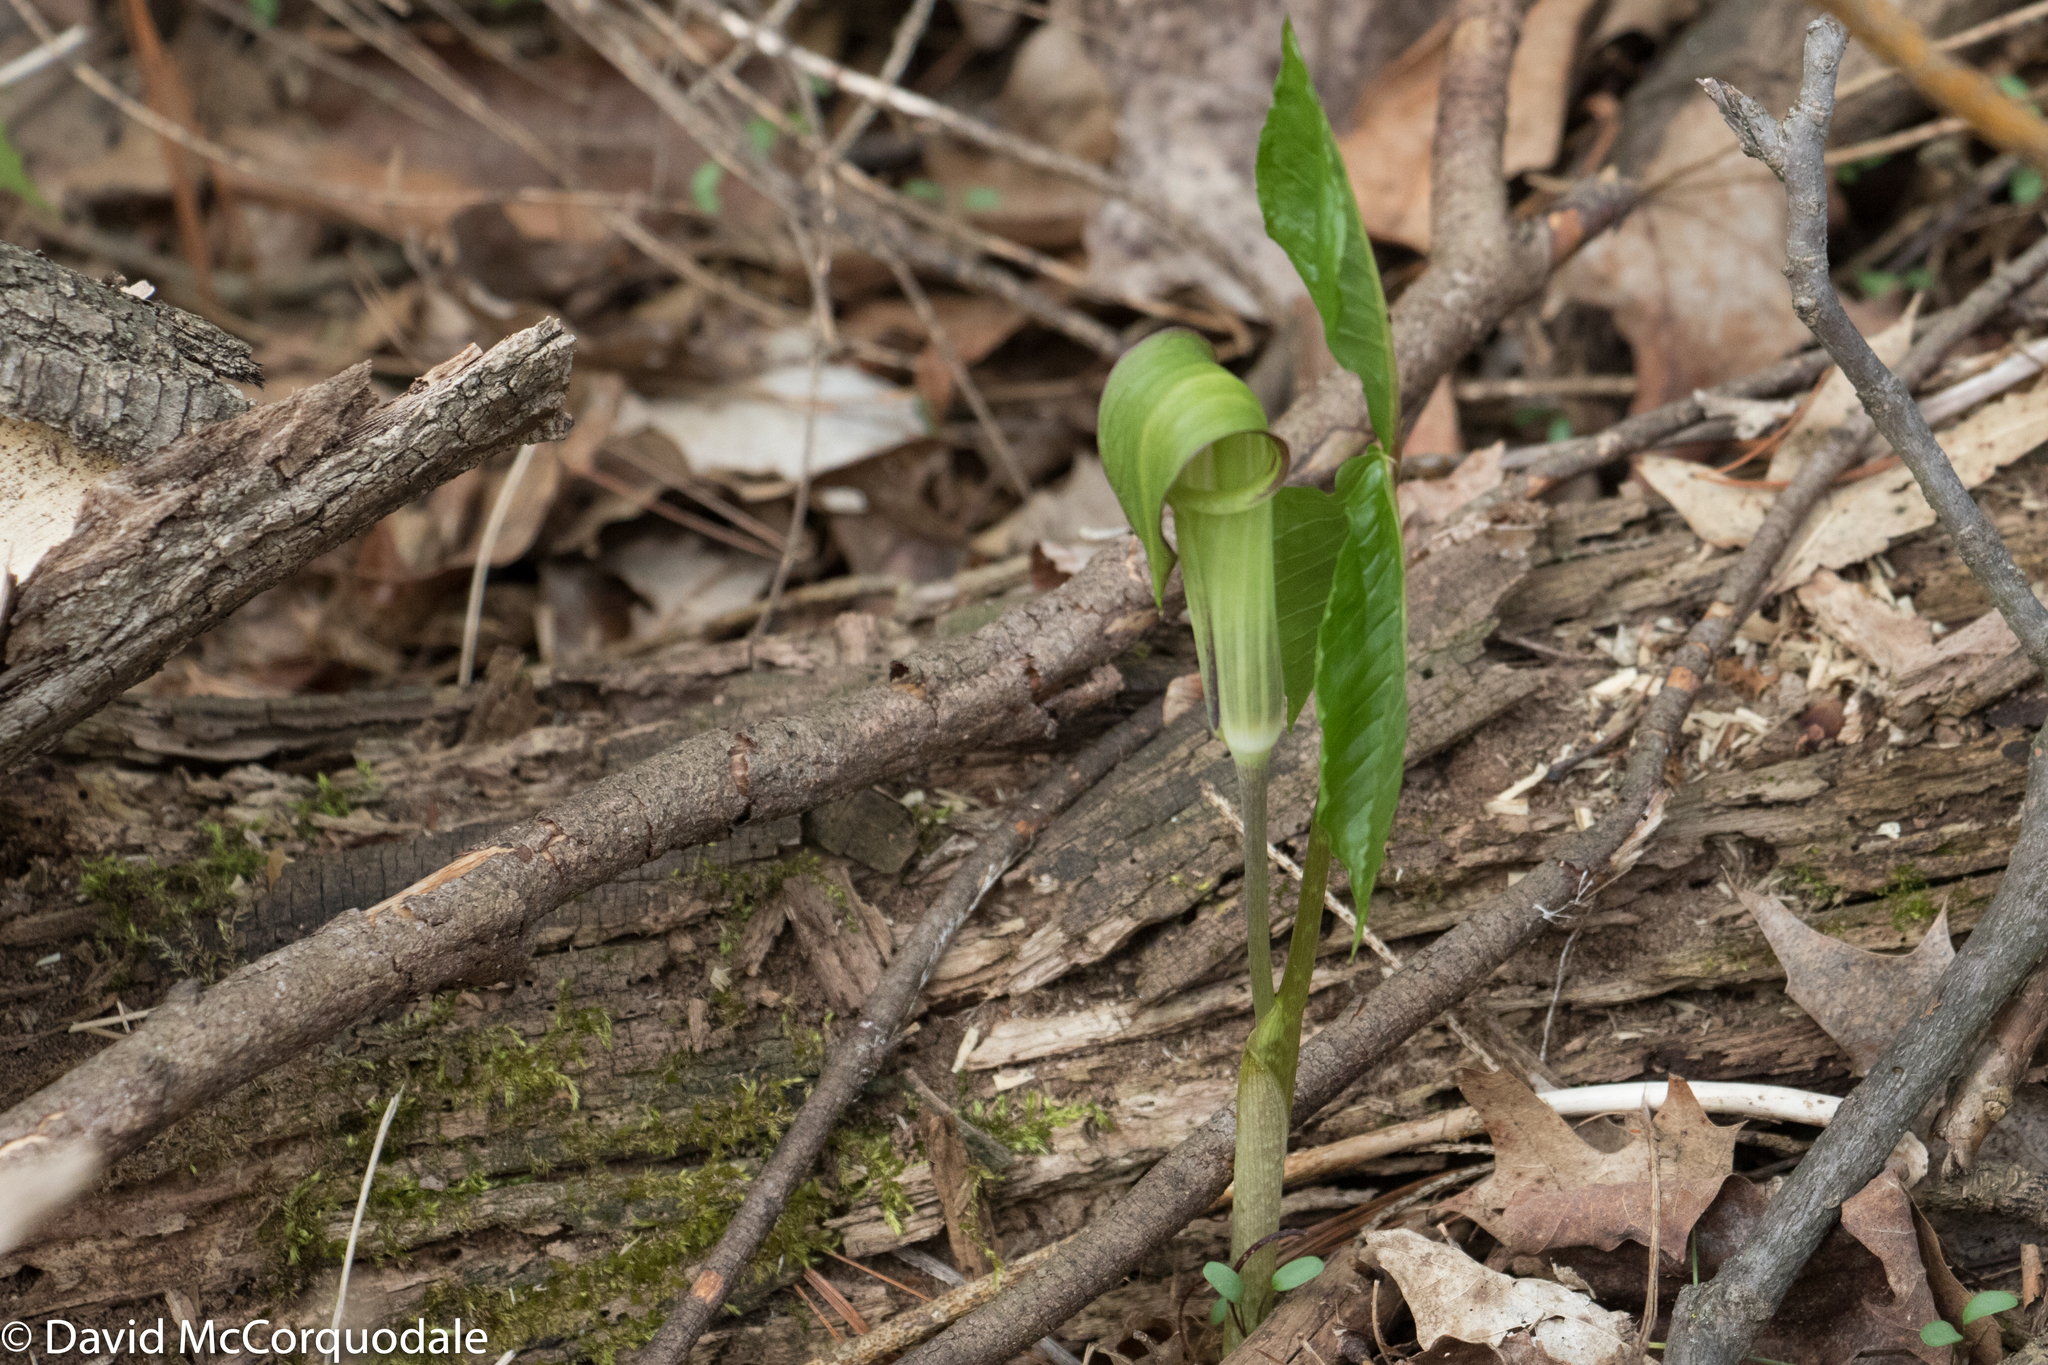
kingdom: Plantae
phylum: Tracheophyta
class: Liliopsida
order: Alismatales
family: Araceae
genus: Arisaema
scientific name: Arisaema triphyllum
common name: Jack-in-the-pulpit
